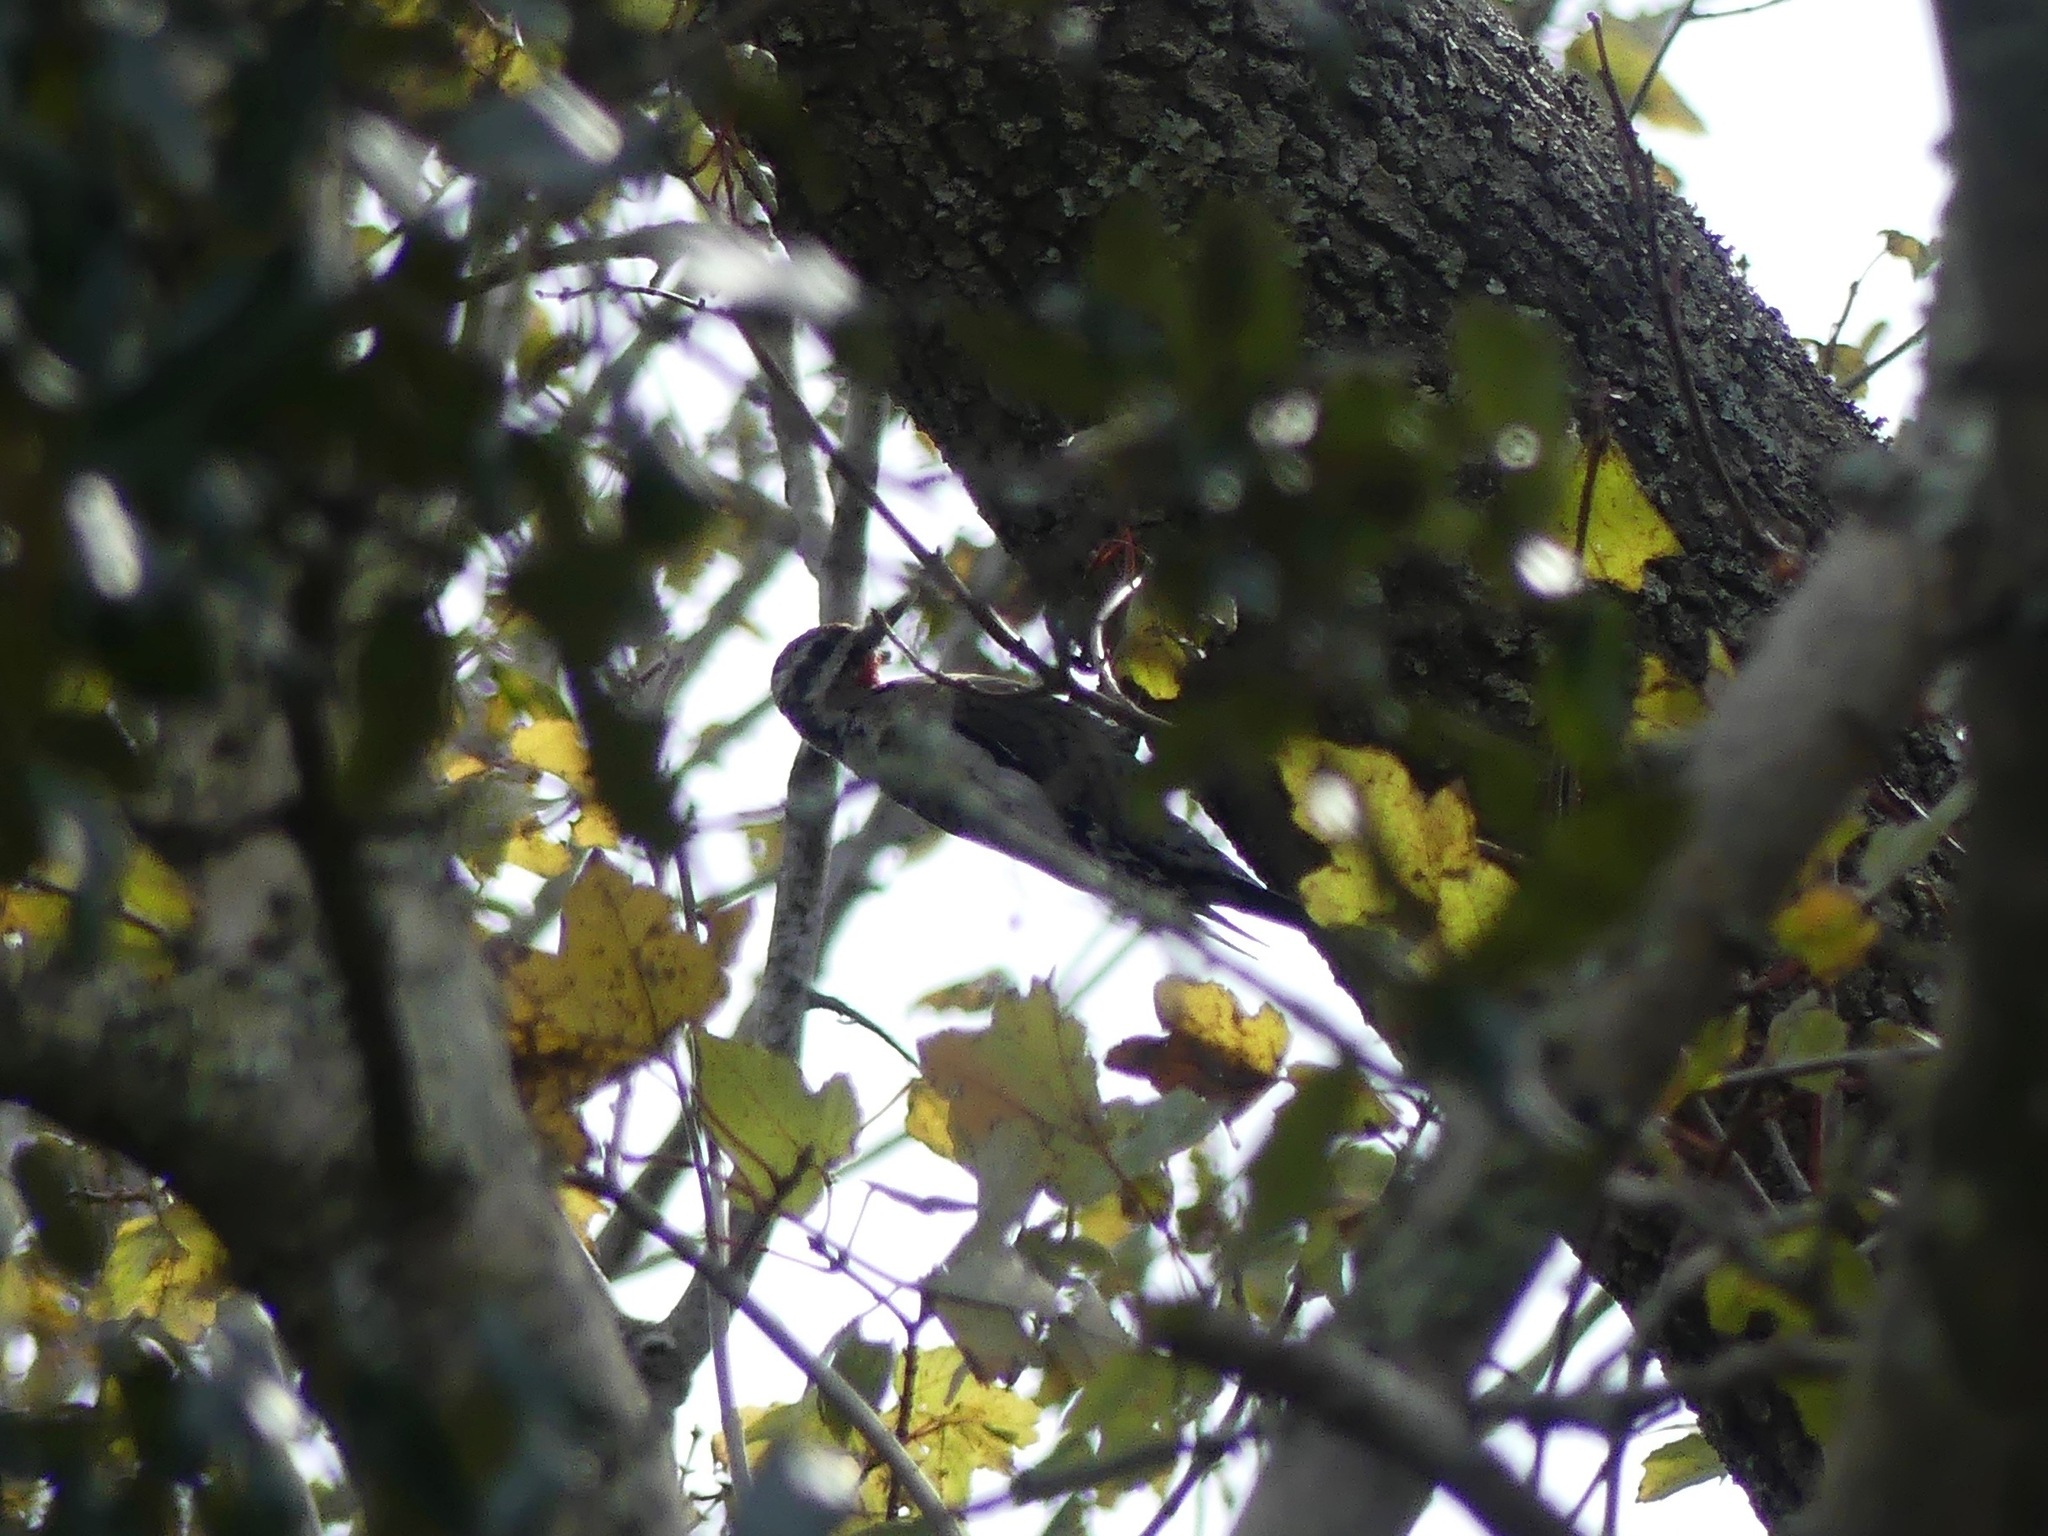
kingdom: Animalia
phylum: Chordata
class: Aves
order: Piciformes
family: Picidae
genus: Sphyrapicus
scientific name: Sphyrapicus varius
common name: Yellow-bellied sapsucker
